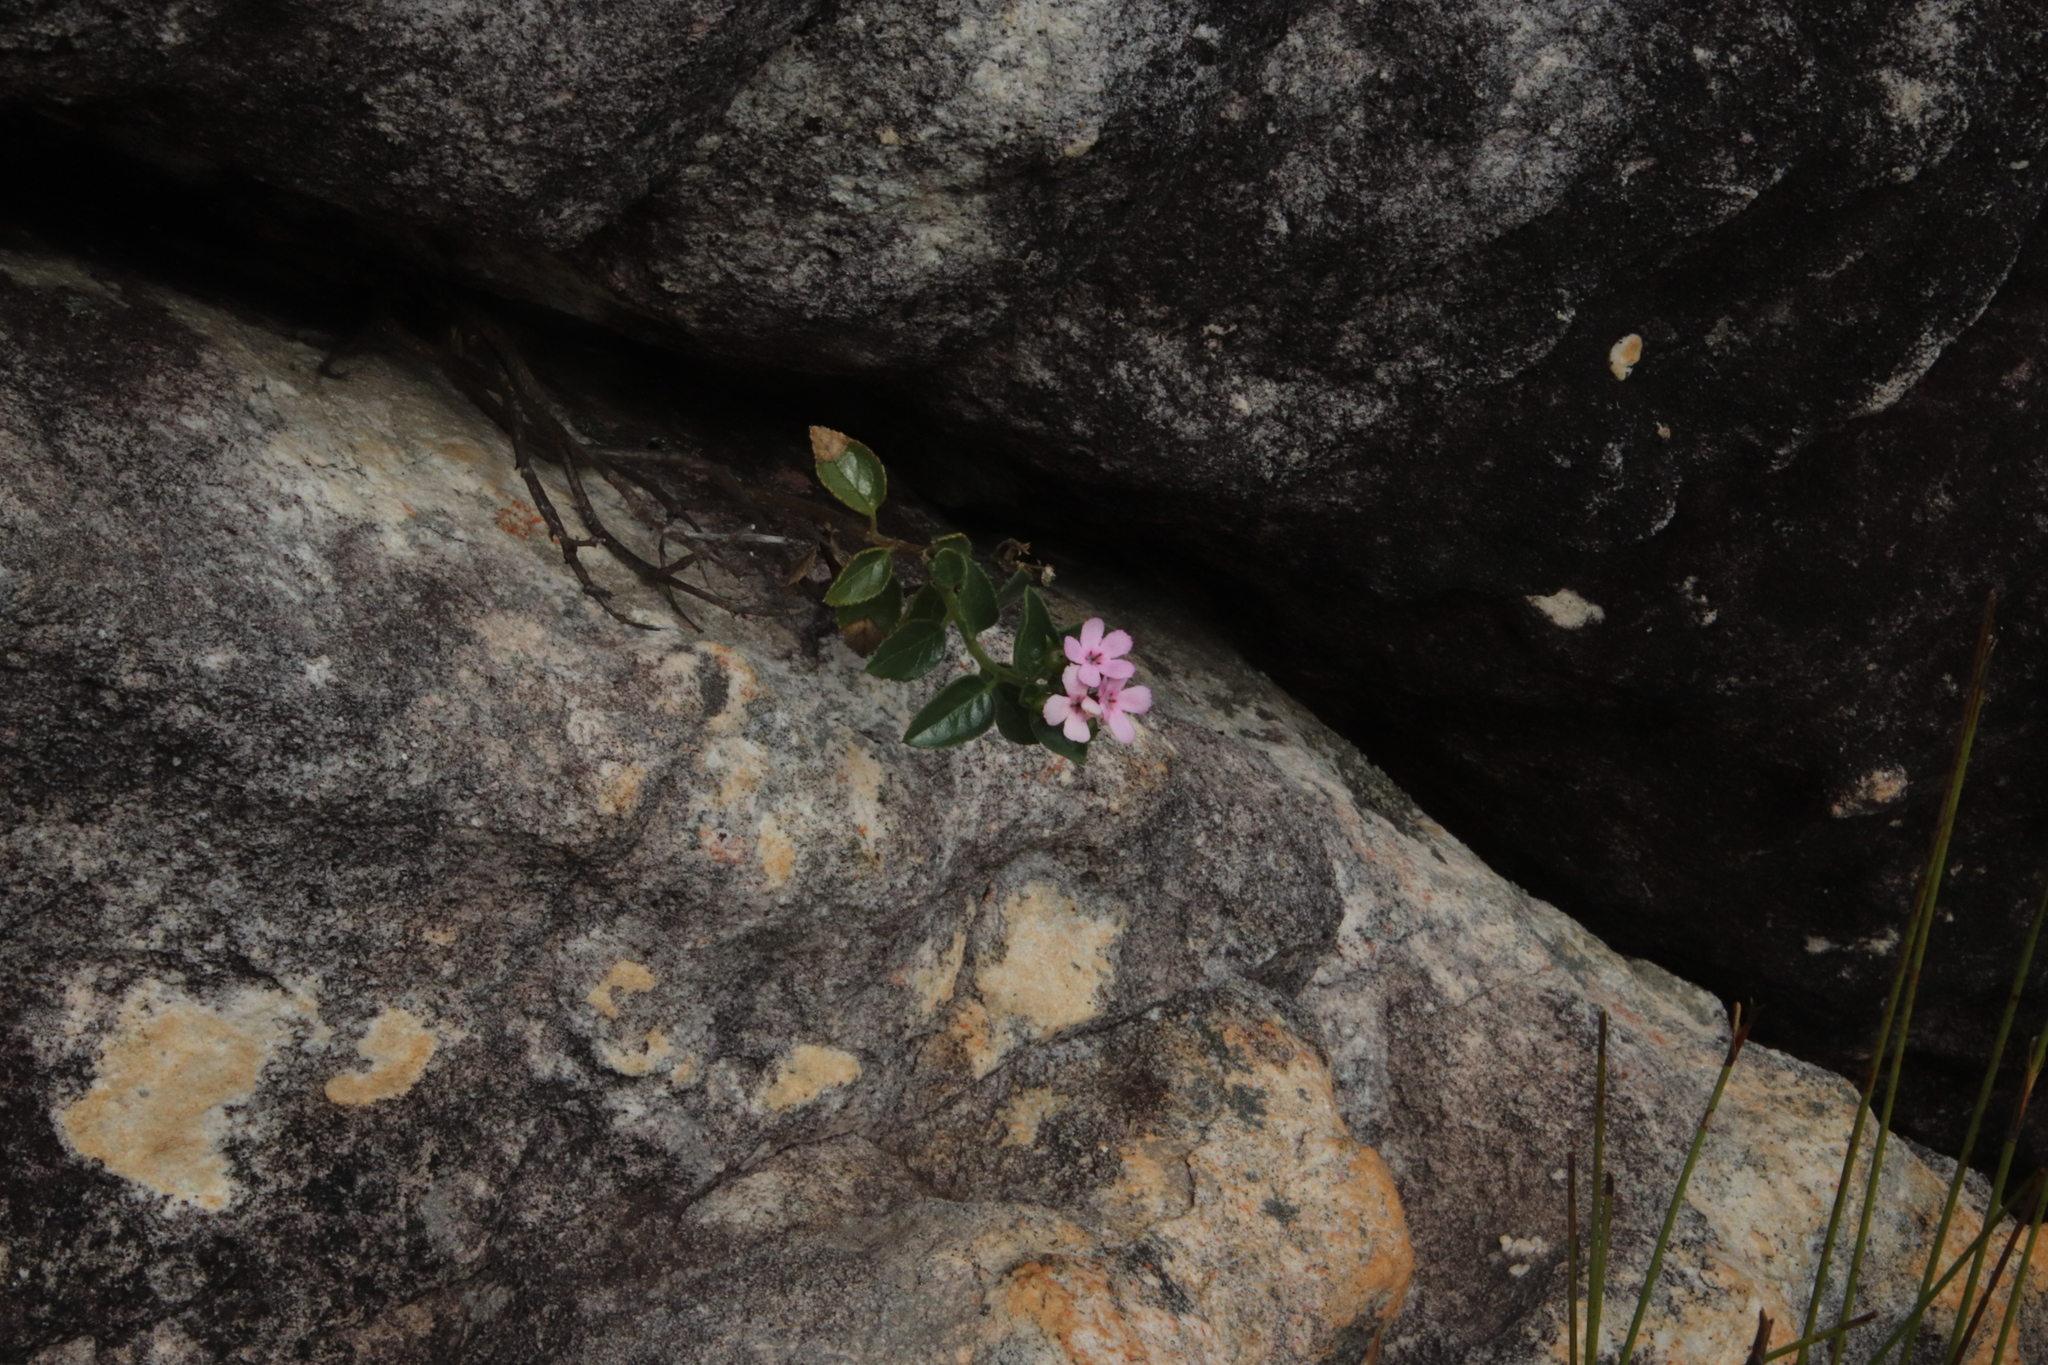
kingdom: Plantae
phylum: Tracheophyta
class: Magnoliopsida
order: Lamiales
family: Scrophulariaceae
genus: Teedia
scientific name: Teedia pubescens
